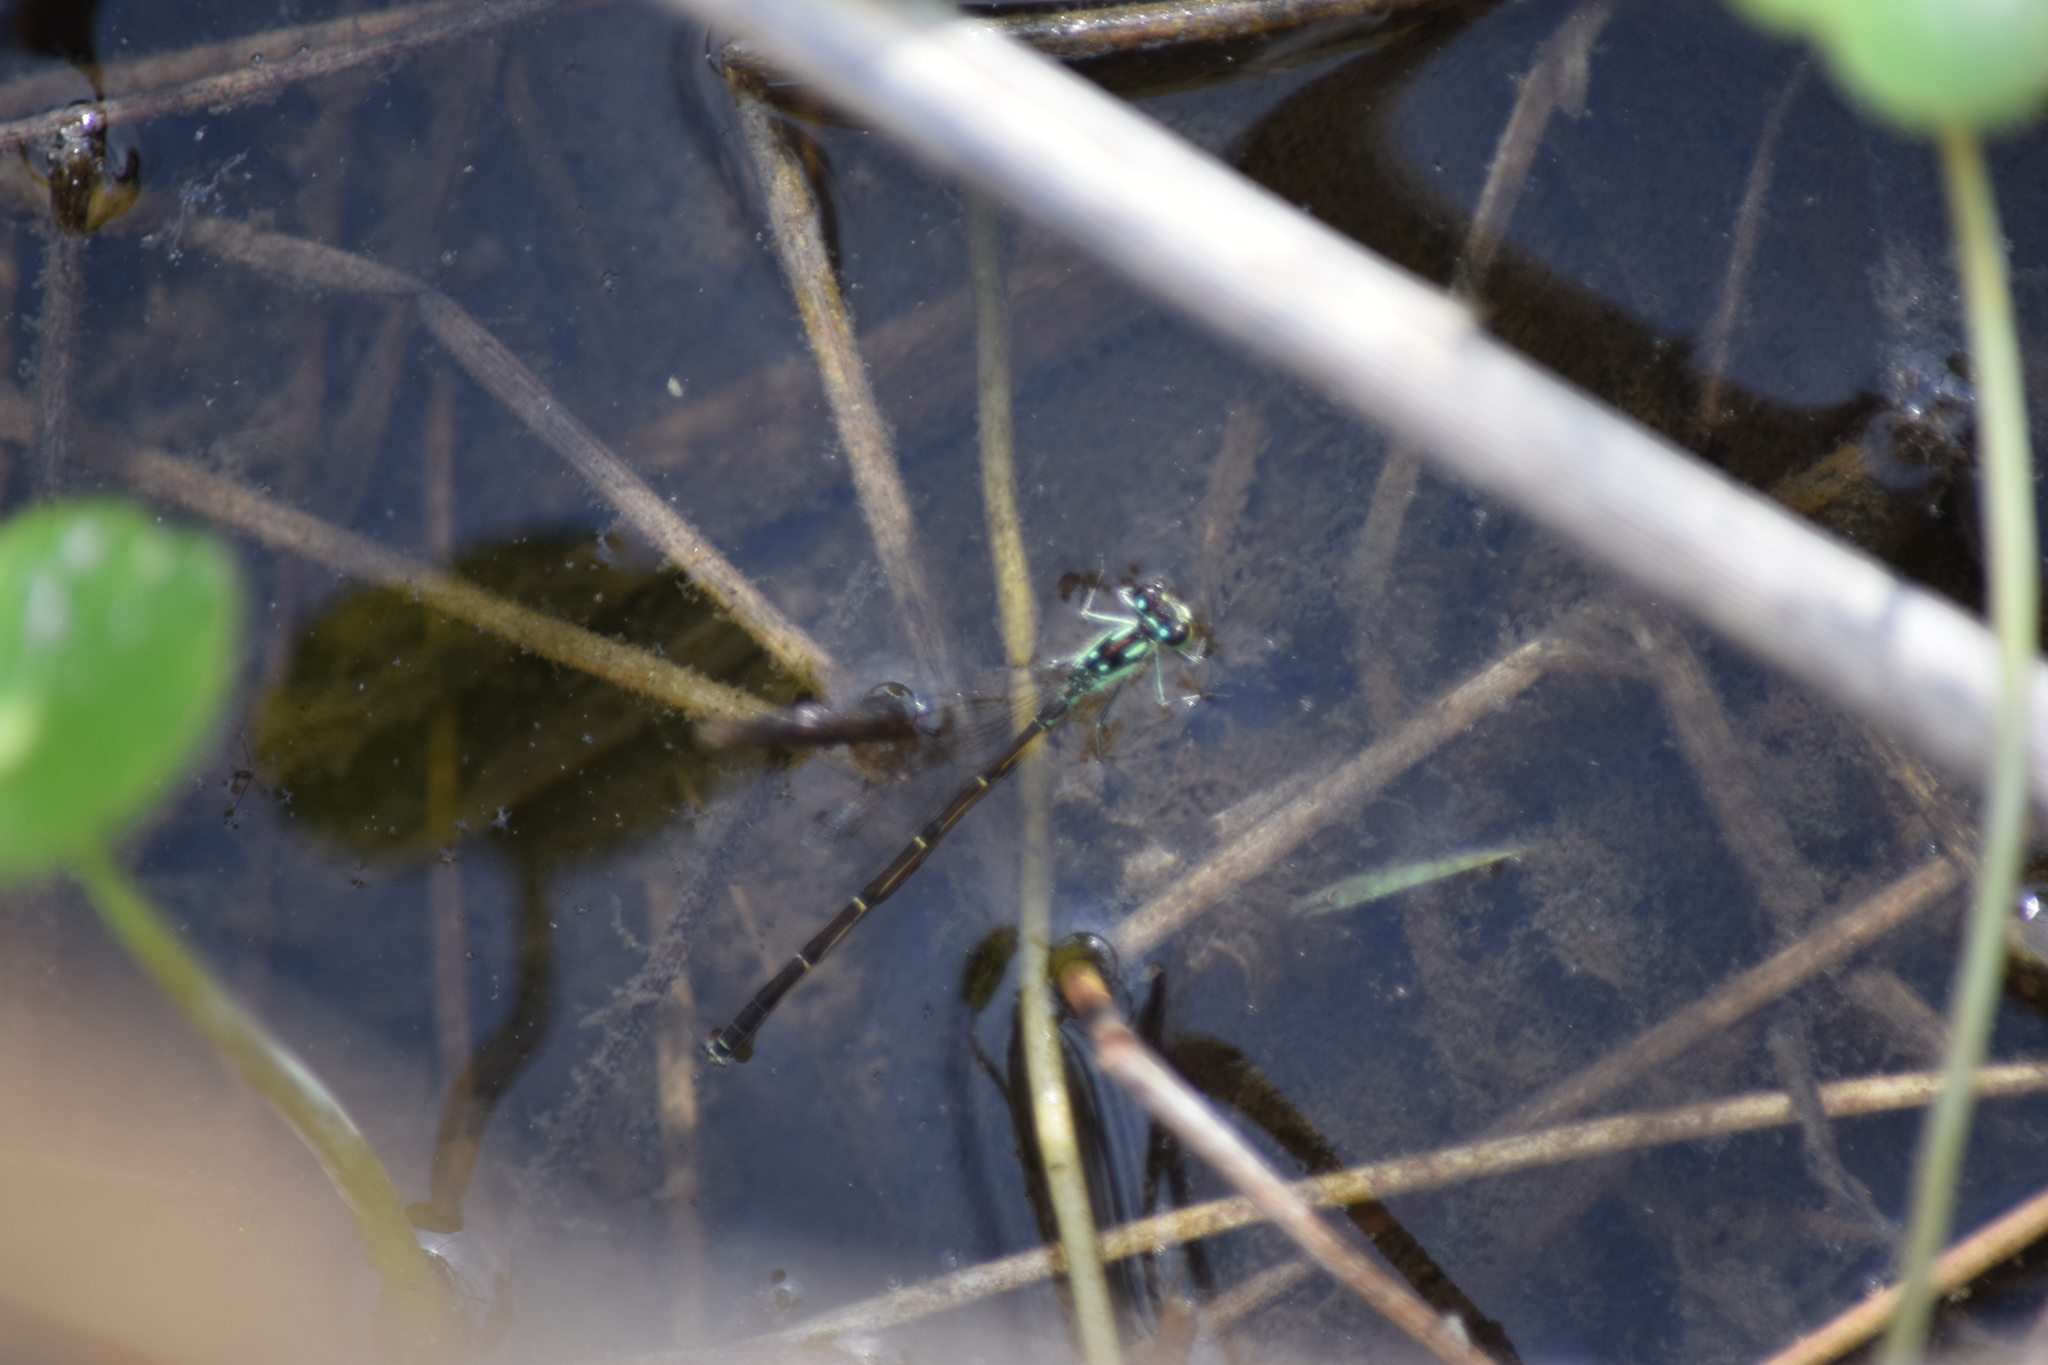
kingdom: Animalia
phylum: Arthropoda
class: Insecta
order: Odonata
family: Coenagrionidae
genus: Ischnura
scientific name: Ischnura posita
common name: Fragile forktail
